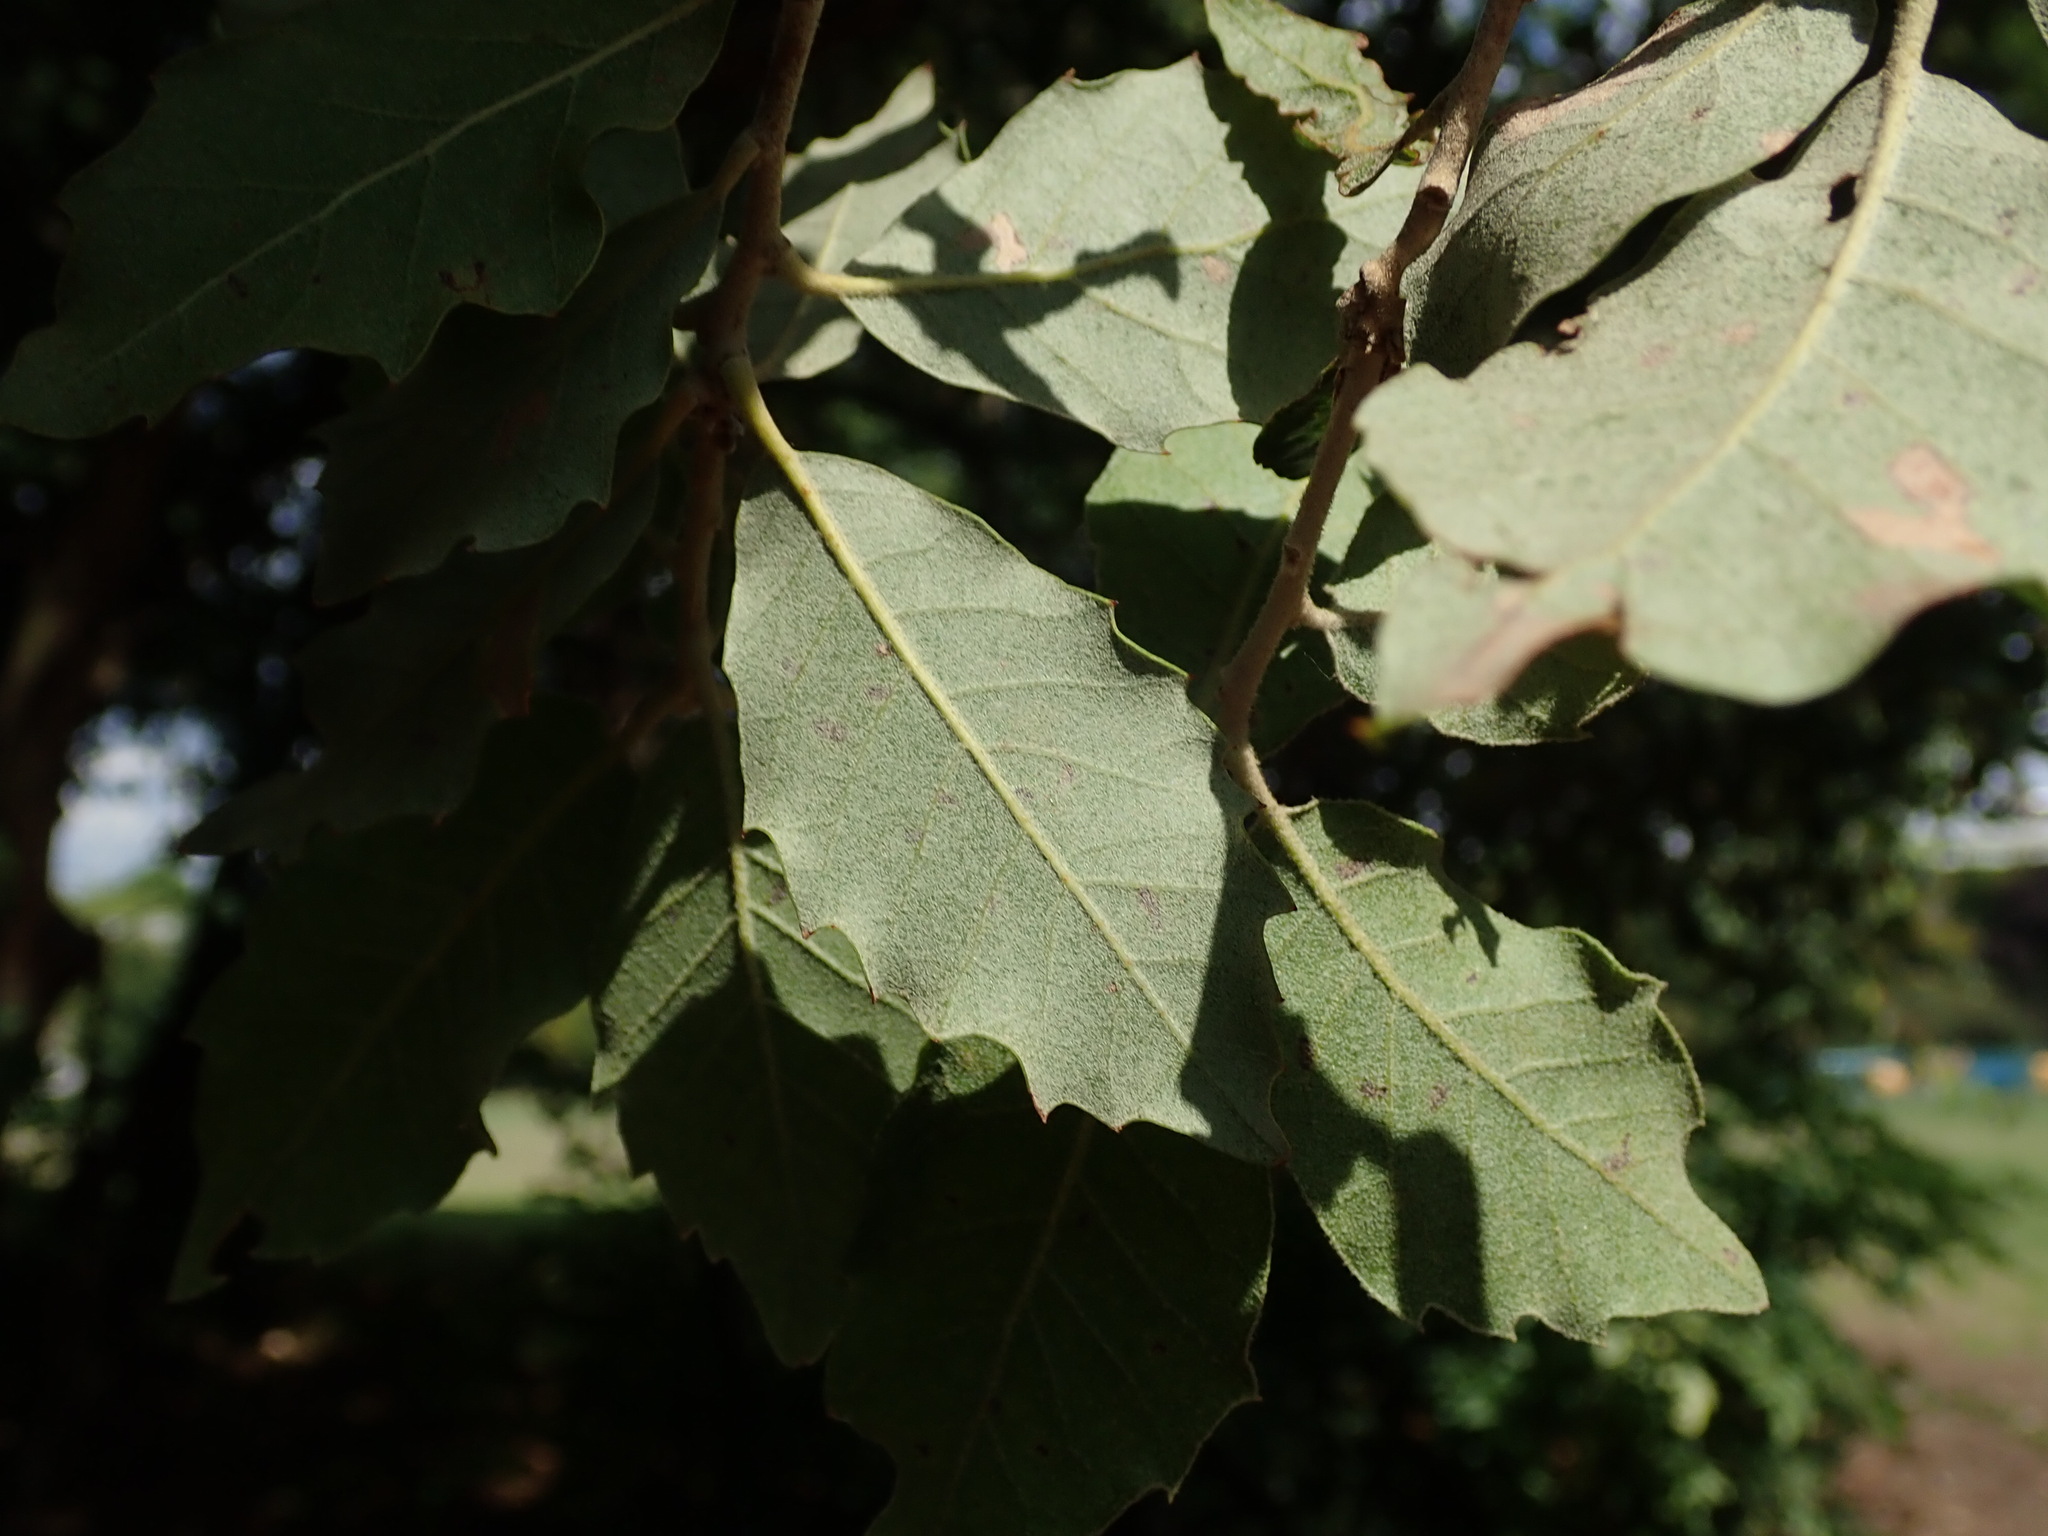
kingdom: Plantae
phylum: Tracheophyta
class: Magnoliopsida
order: Fagales
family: Fagaceae
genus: Quercus
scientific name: Quercus ilex
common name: Evergreen oak
